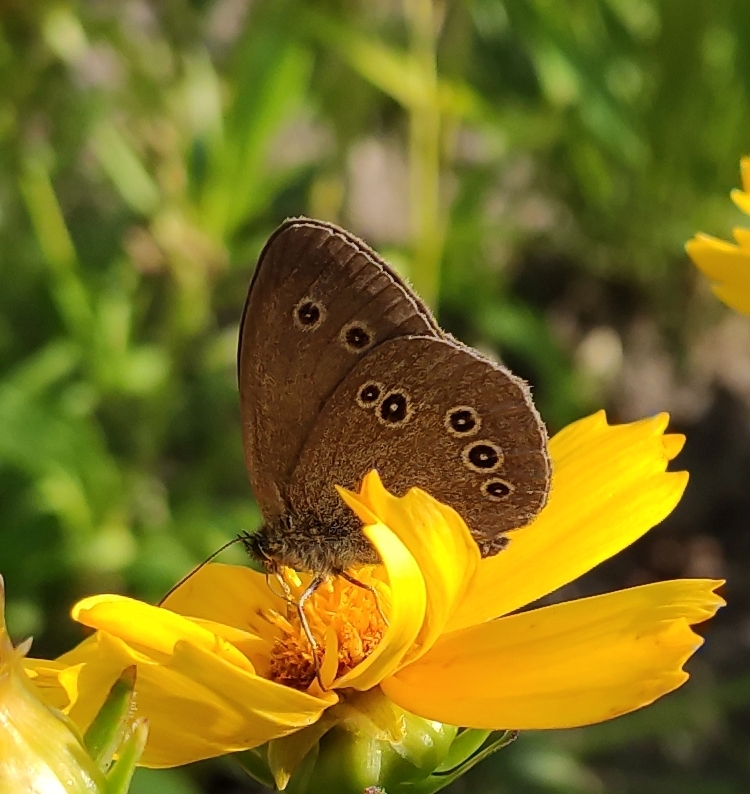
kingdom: Animalia
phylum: Arthropoda
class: Insecta
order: Lepidoptera
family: Nymphalidae
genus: Aphantopus
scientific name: Aphantopus hyperantus
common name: Ringlet
